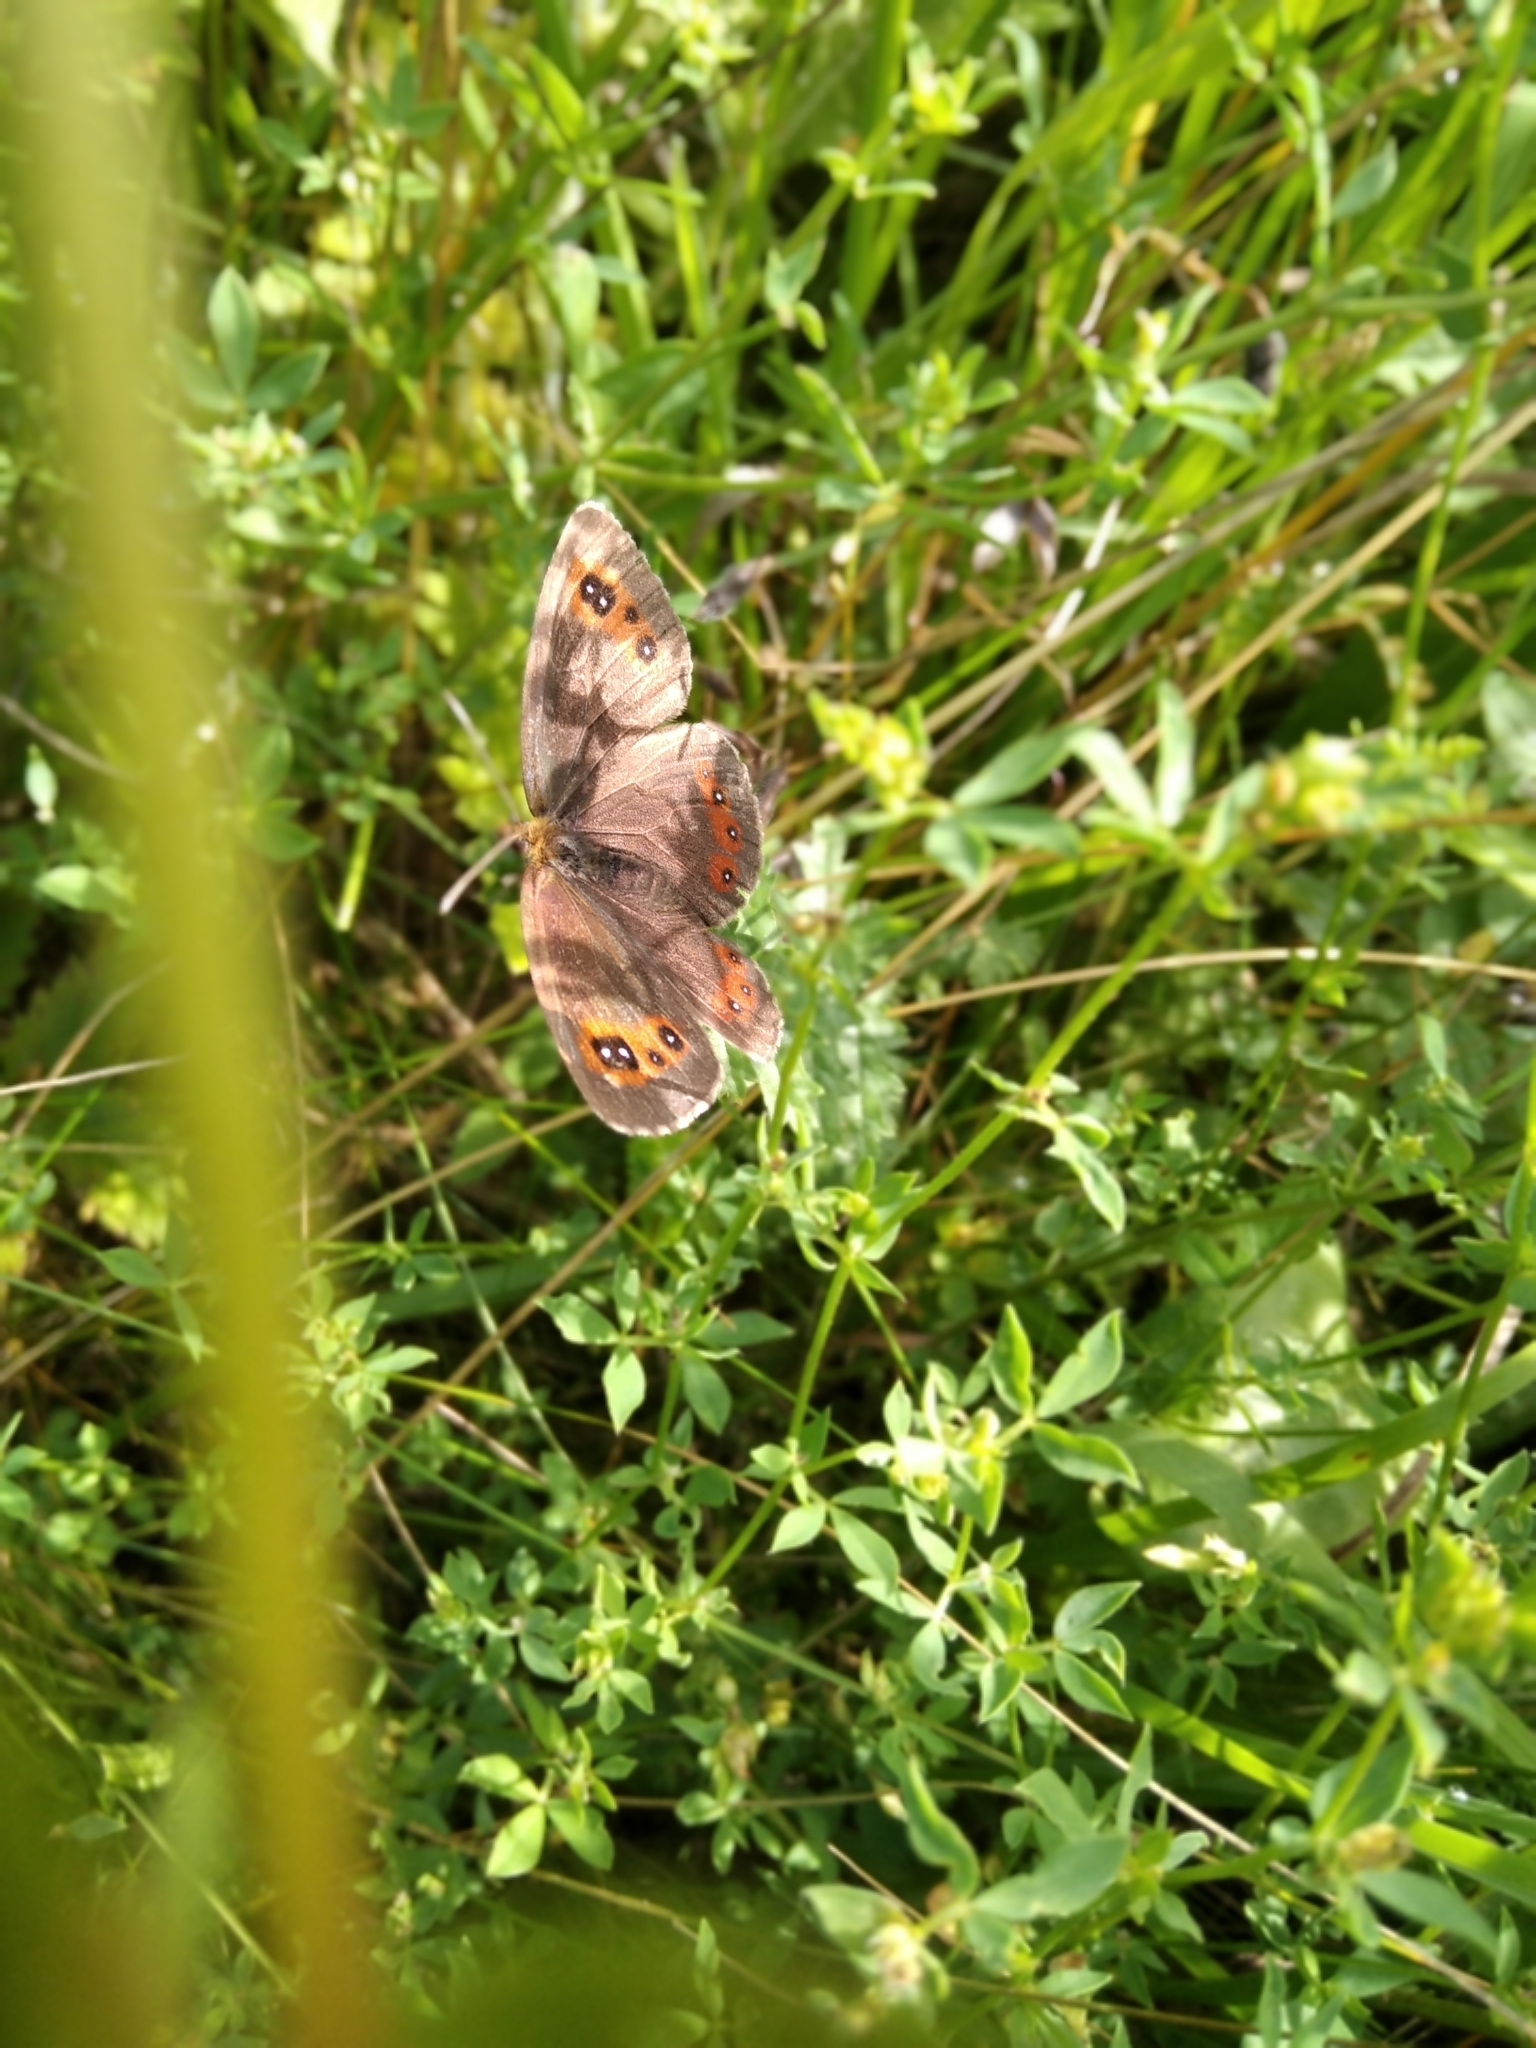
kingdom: Animalia
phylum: Arthropoda
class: Insecta
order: Lepidoptera
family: Nymphalidae
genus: Erebia
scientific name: Erebia aethiops
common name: Scotch argus
